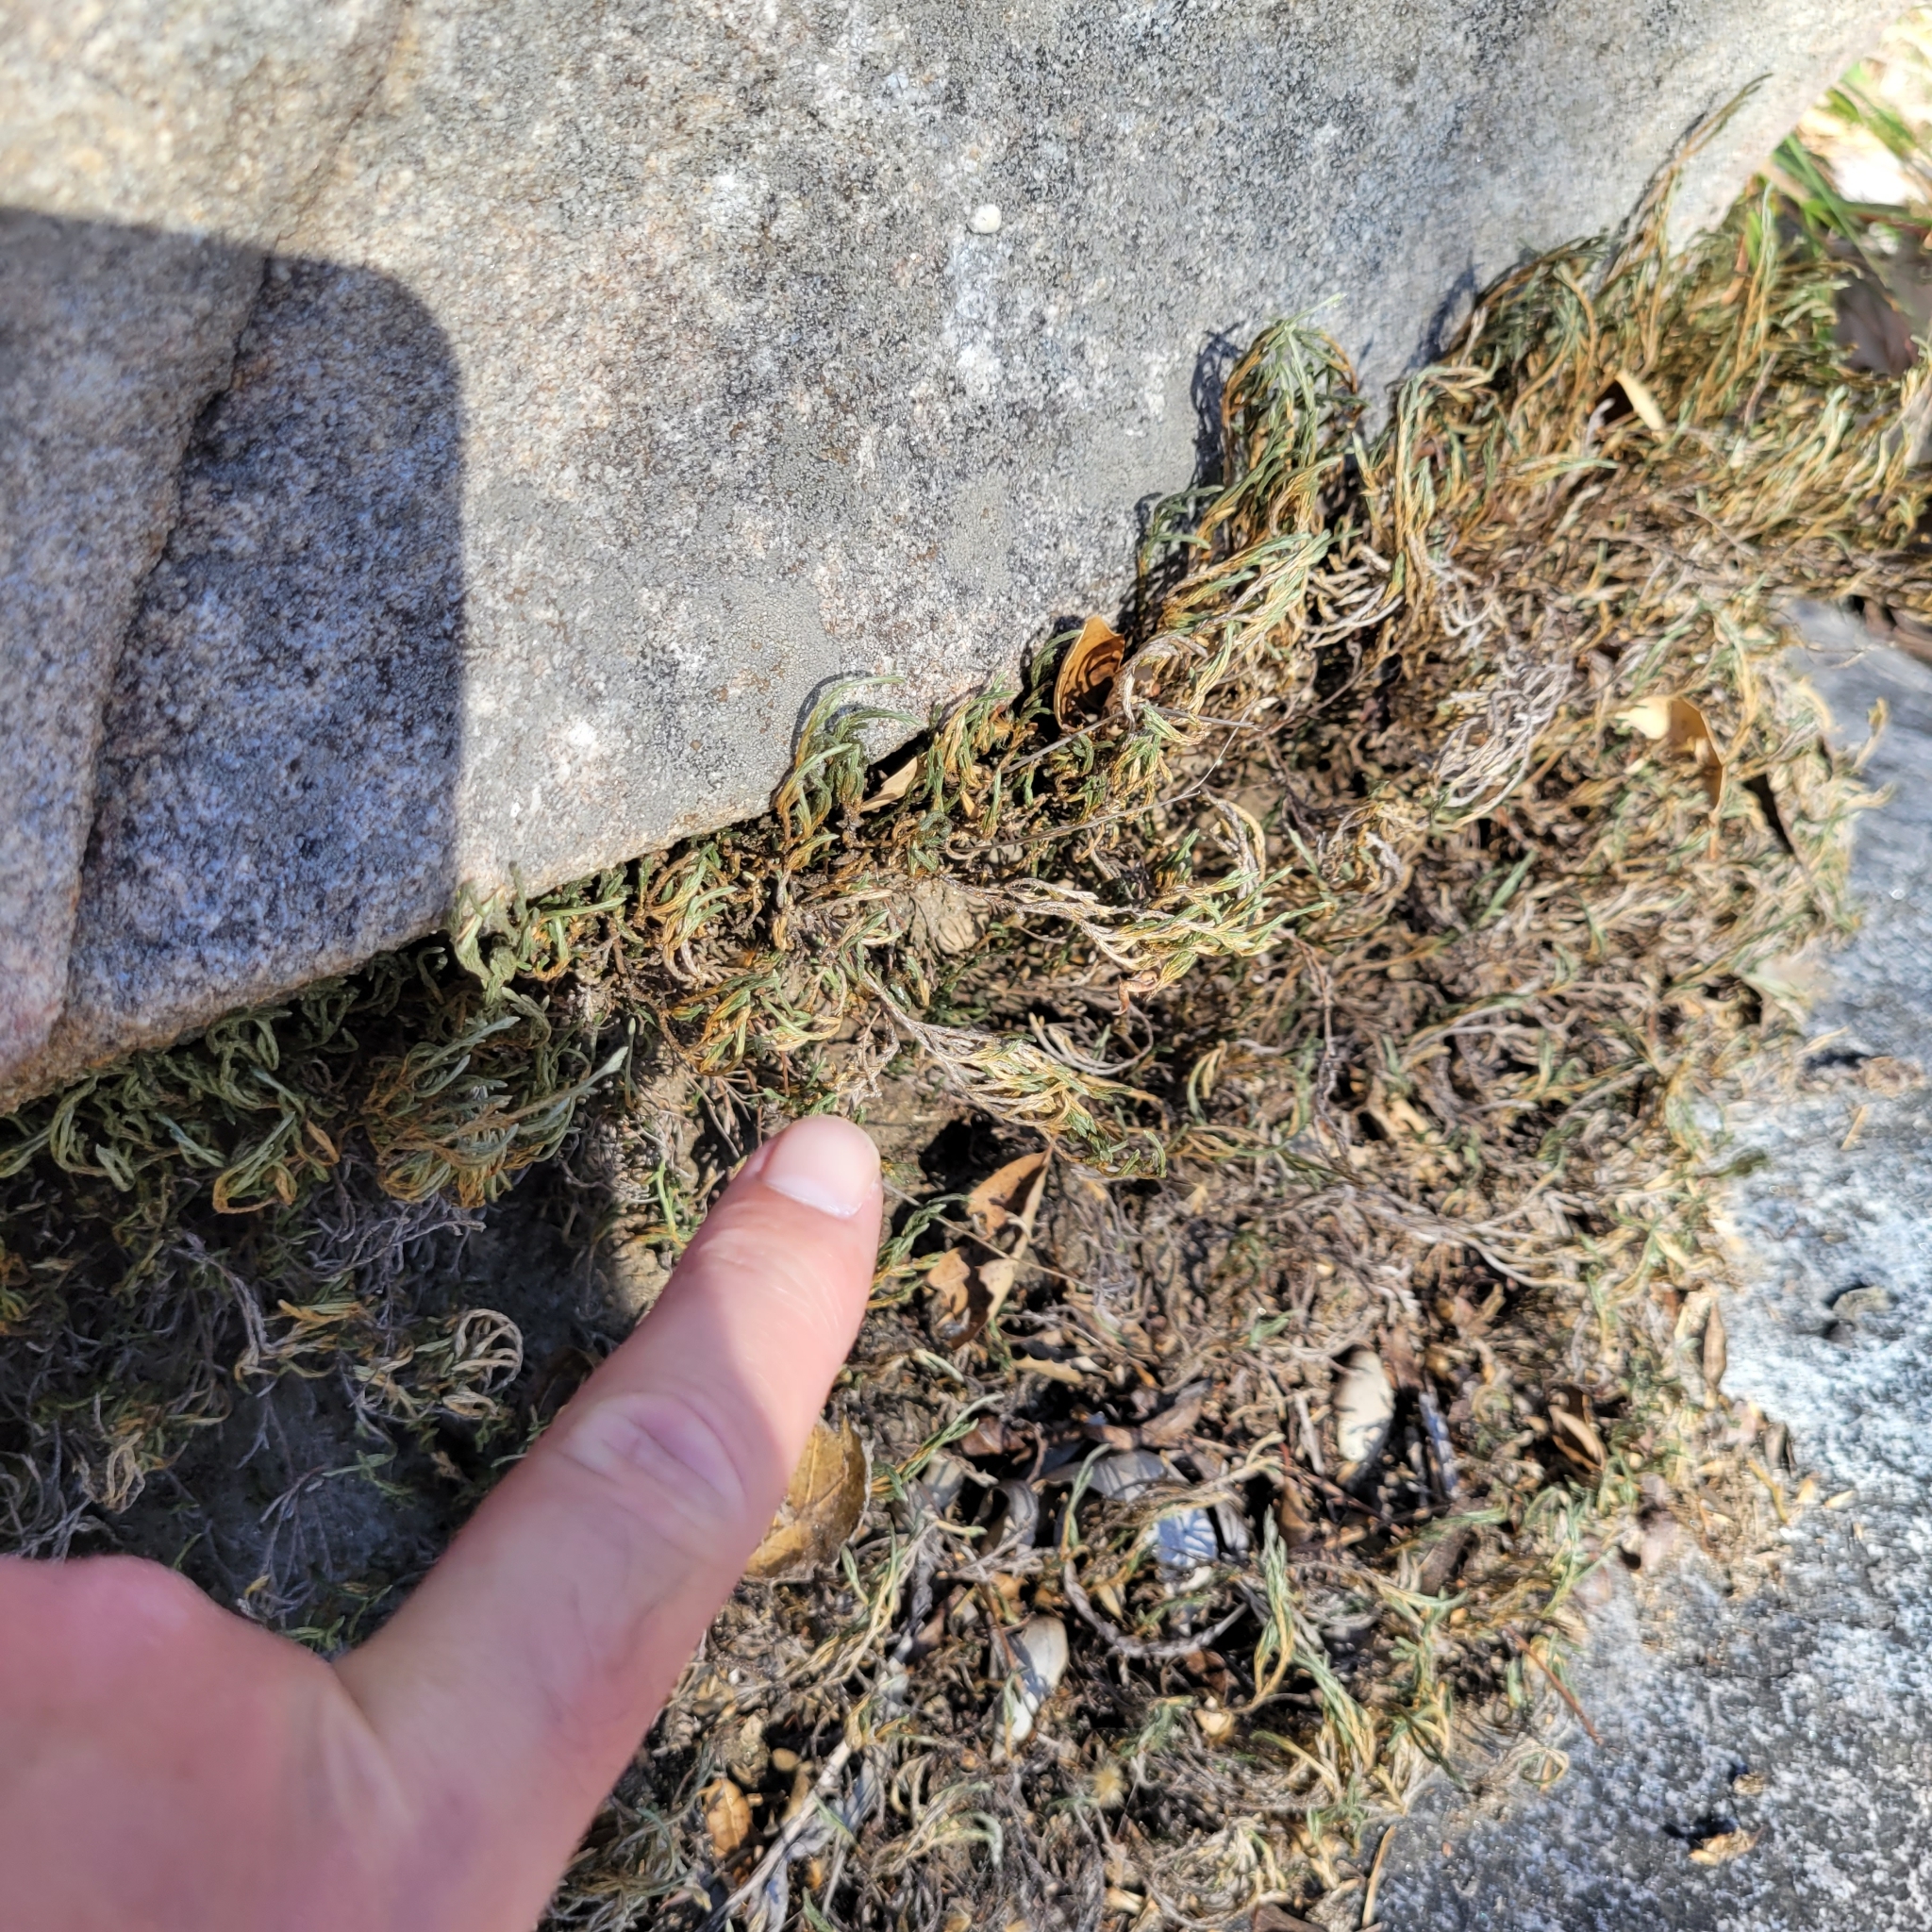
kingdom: Plantae
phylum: Tracheophyta
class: Lycopodiopsida
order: Selaginellales
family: Selaginellaceae
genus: Selaginella
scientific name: Selaginella bigelovii
